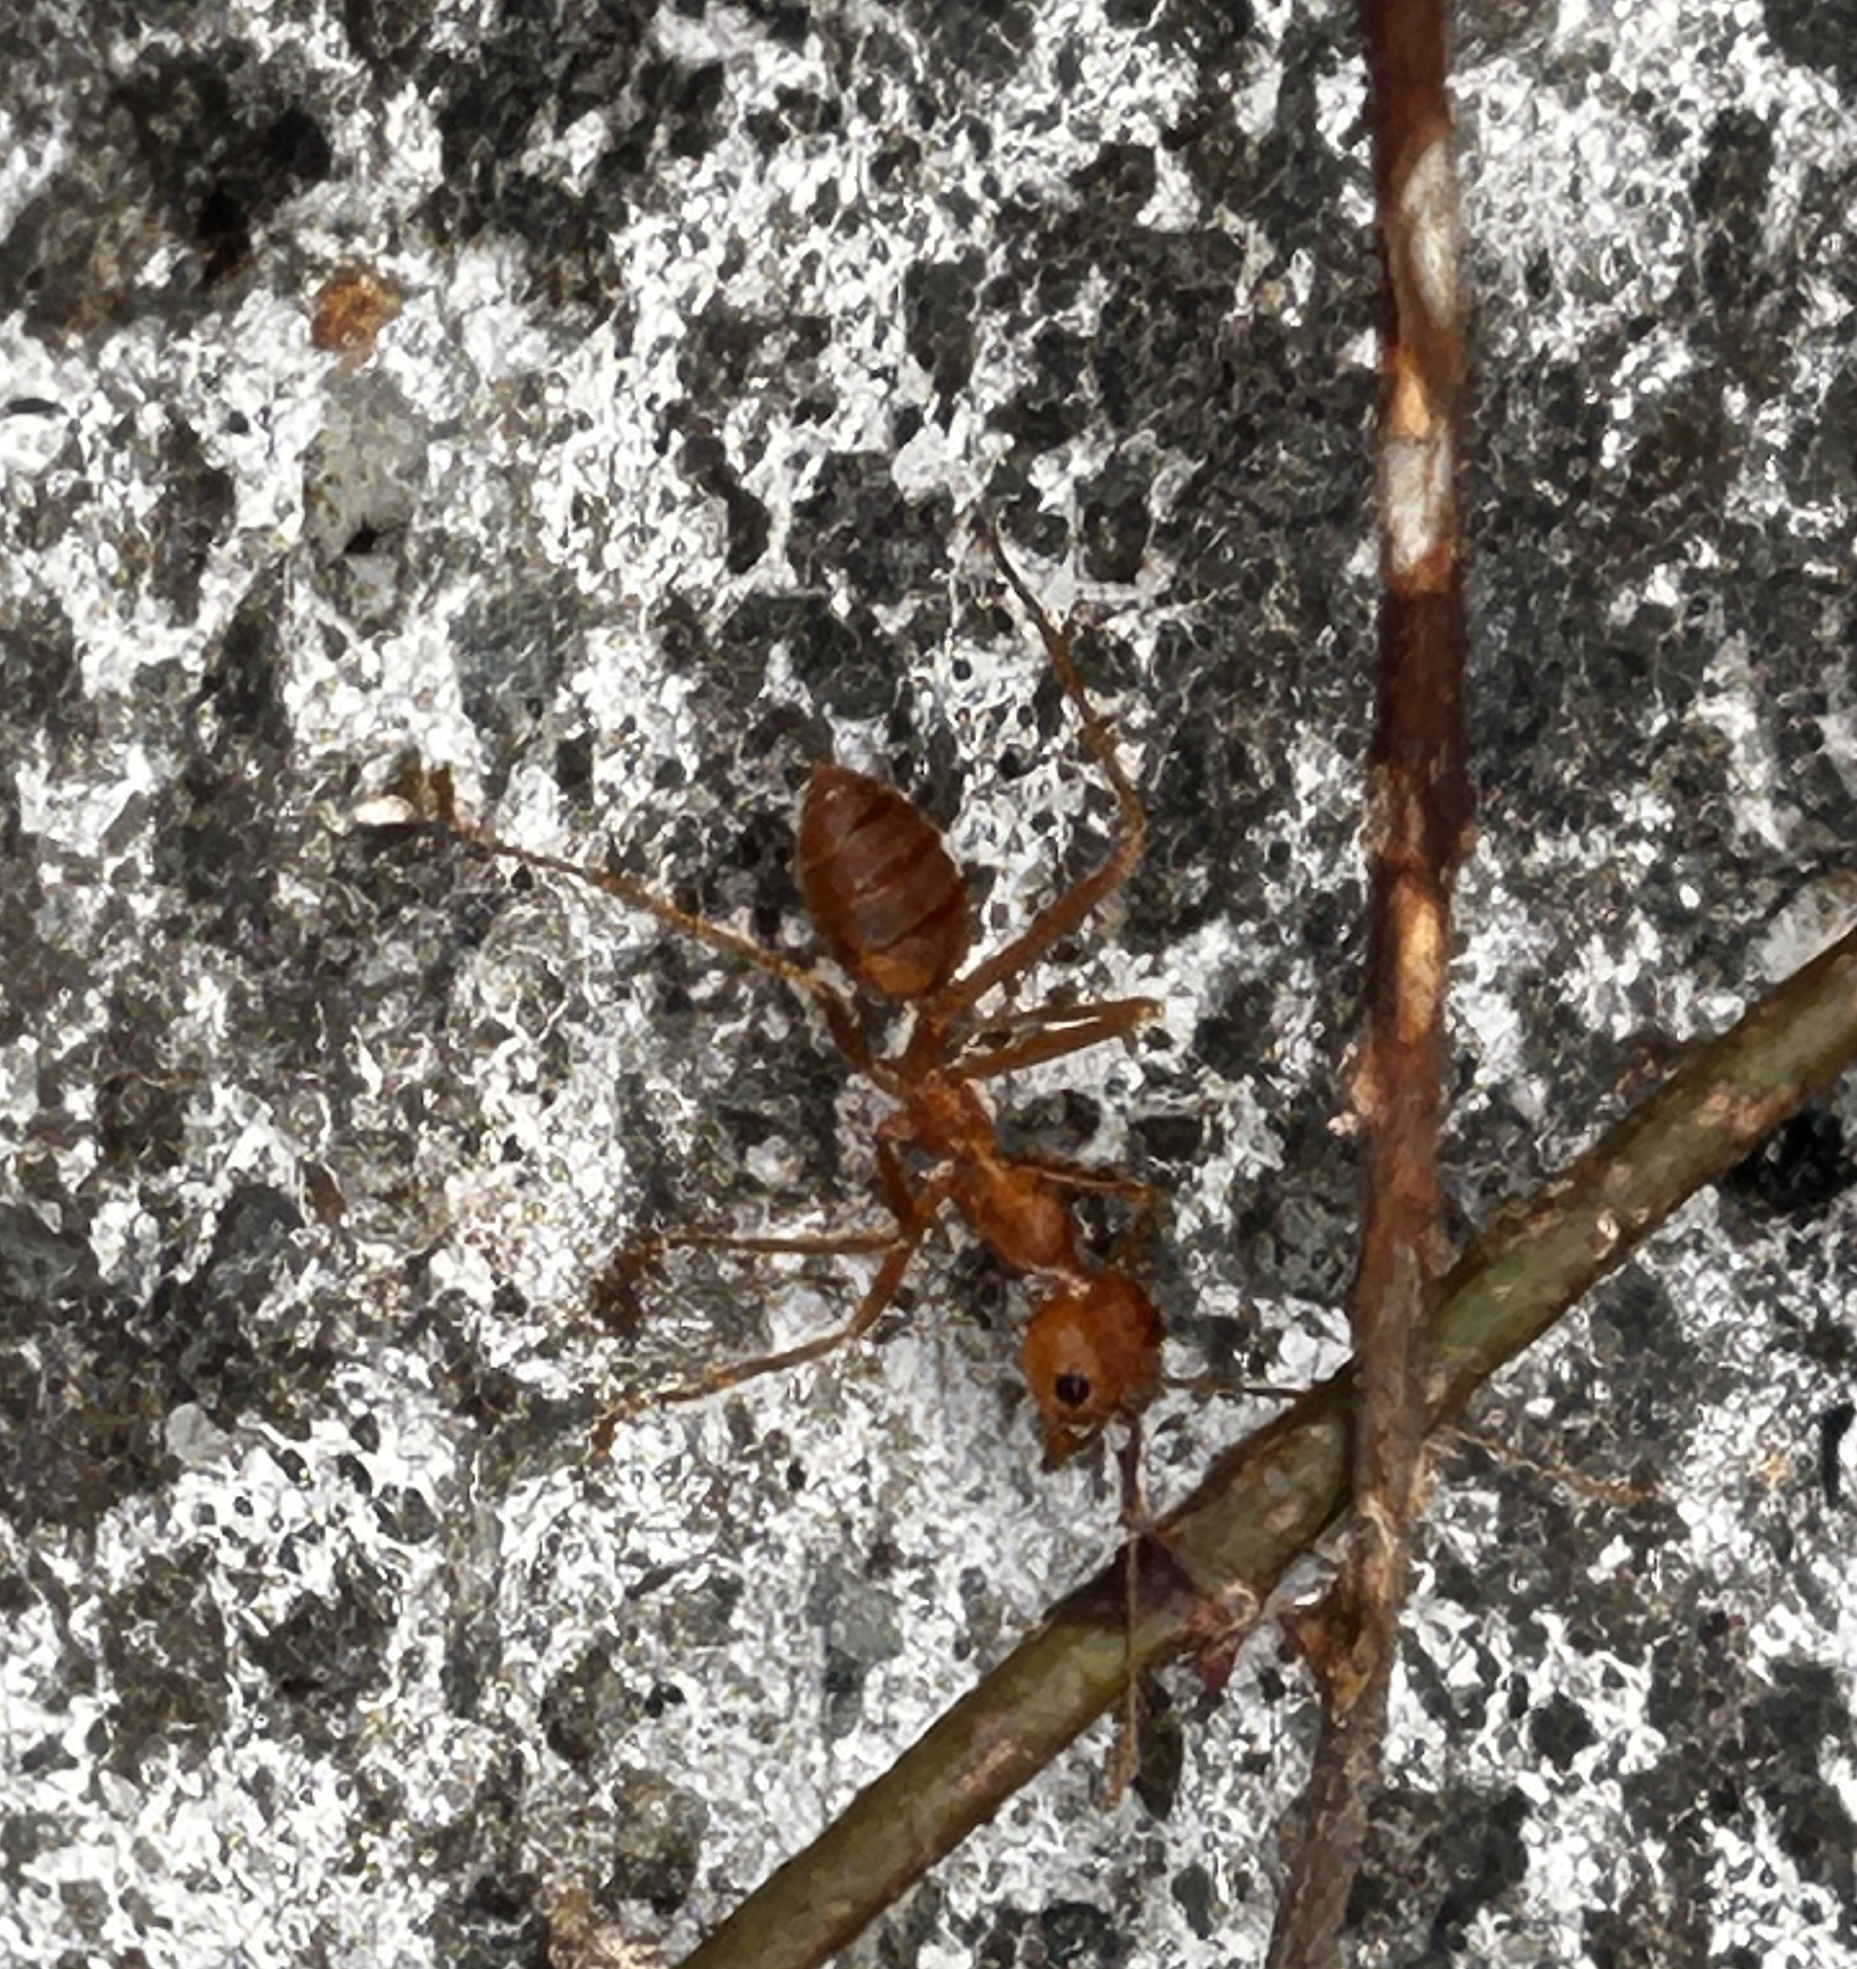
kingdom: Animalia
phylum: Arthropoda
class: Insecta
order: Hymenoptera
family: Formicidae
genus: Oecophylla
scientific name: Oecophylla smaragdina
